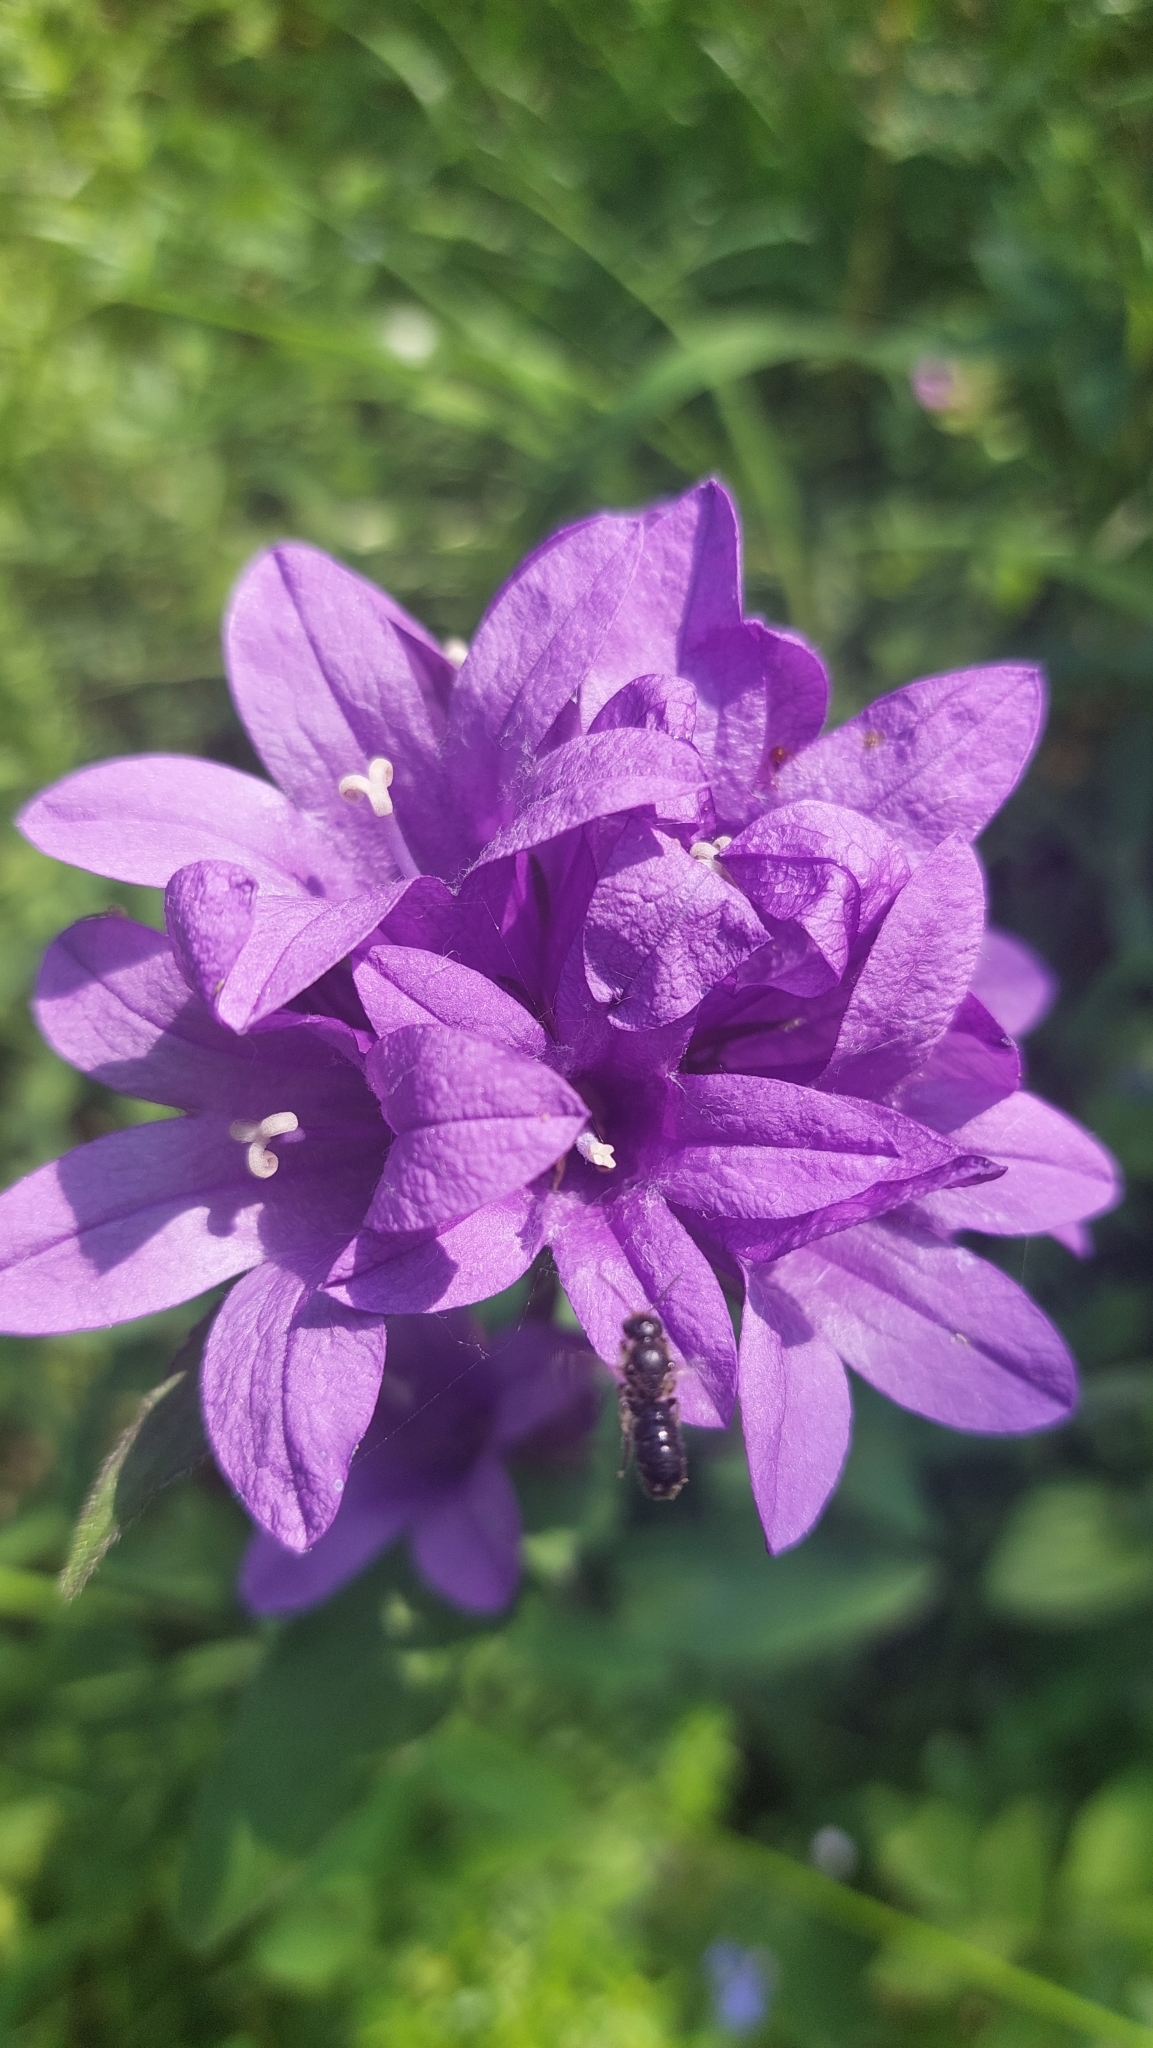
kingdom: Plantae
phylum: Tracheophyta
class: Magnoliopsida
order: Asterales
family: Campanulaceae
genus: Campanula
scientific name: Campanula glomerata
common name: Clustered bellflower
